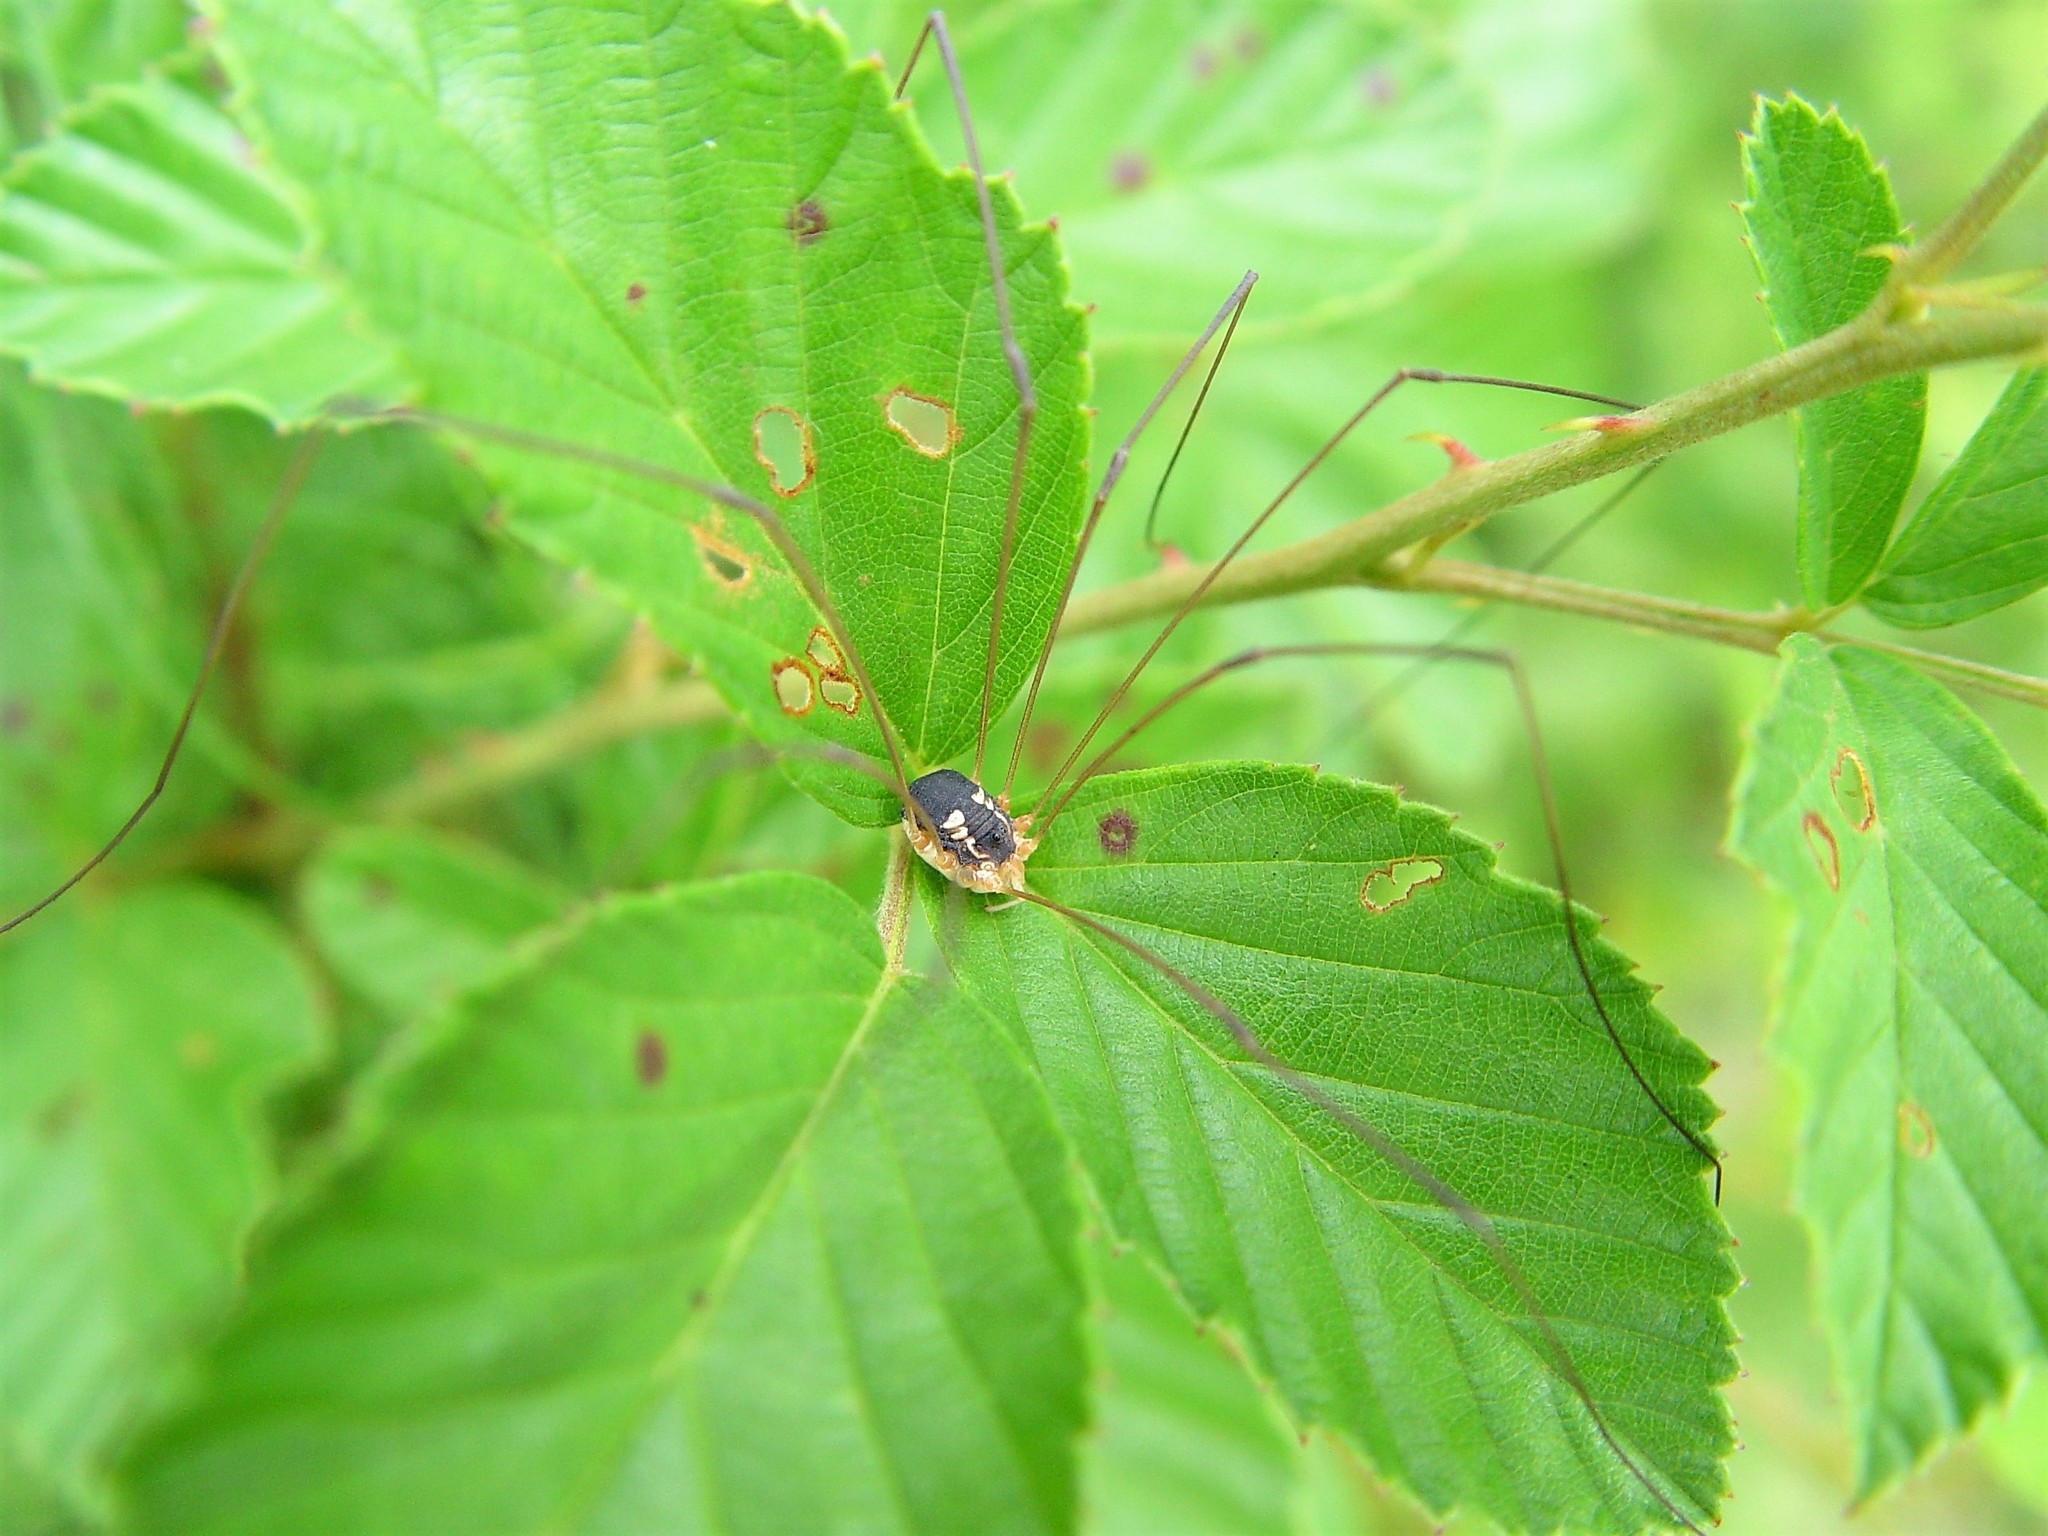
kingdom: Animalia
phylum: Arthropoda
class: Arachnida
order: Opiliones
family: Sclerosomatidae
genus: Leiobunum
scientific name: Leiobunum bimaculatum
